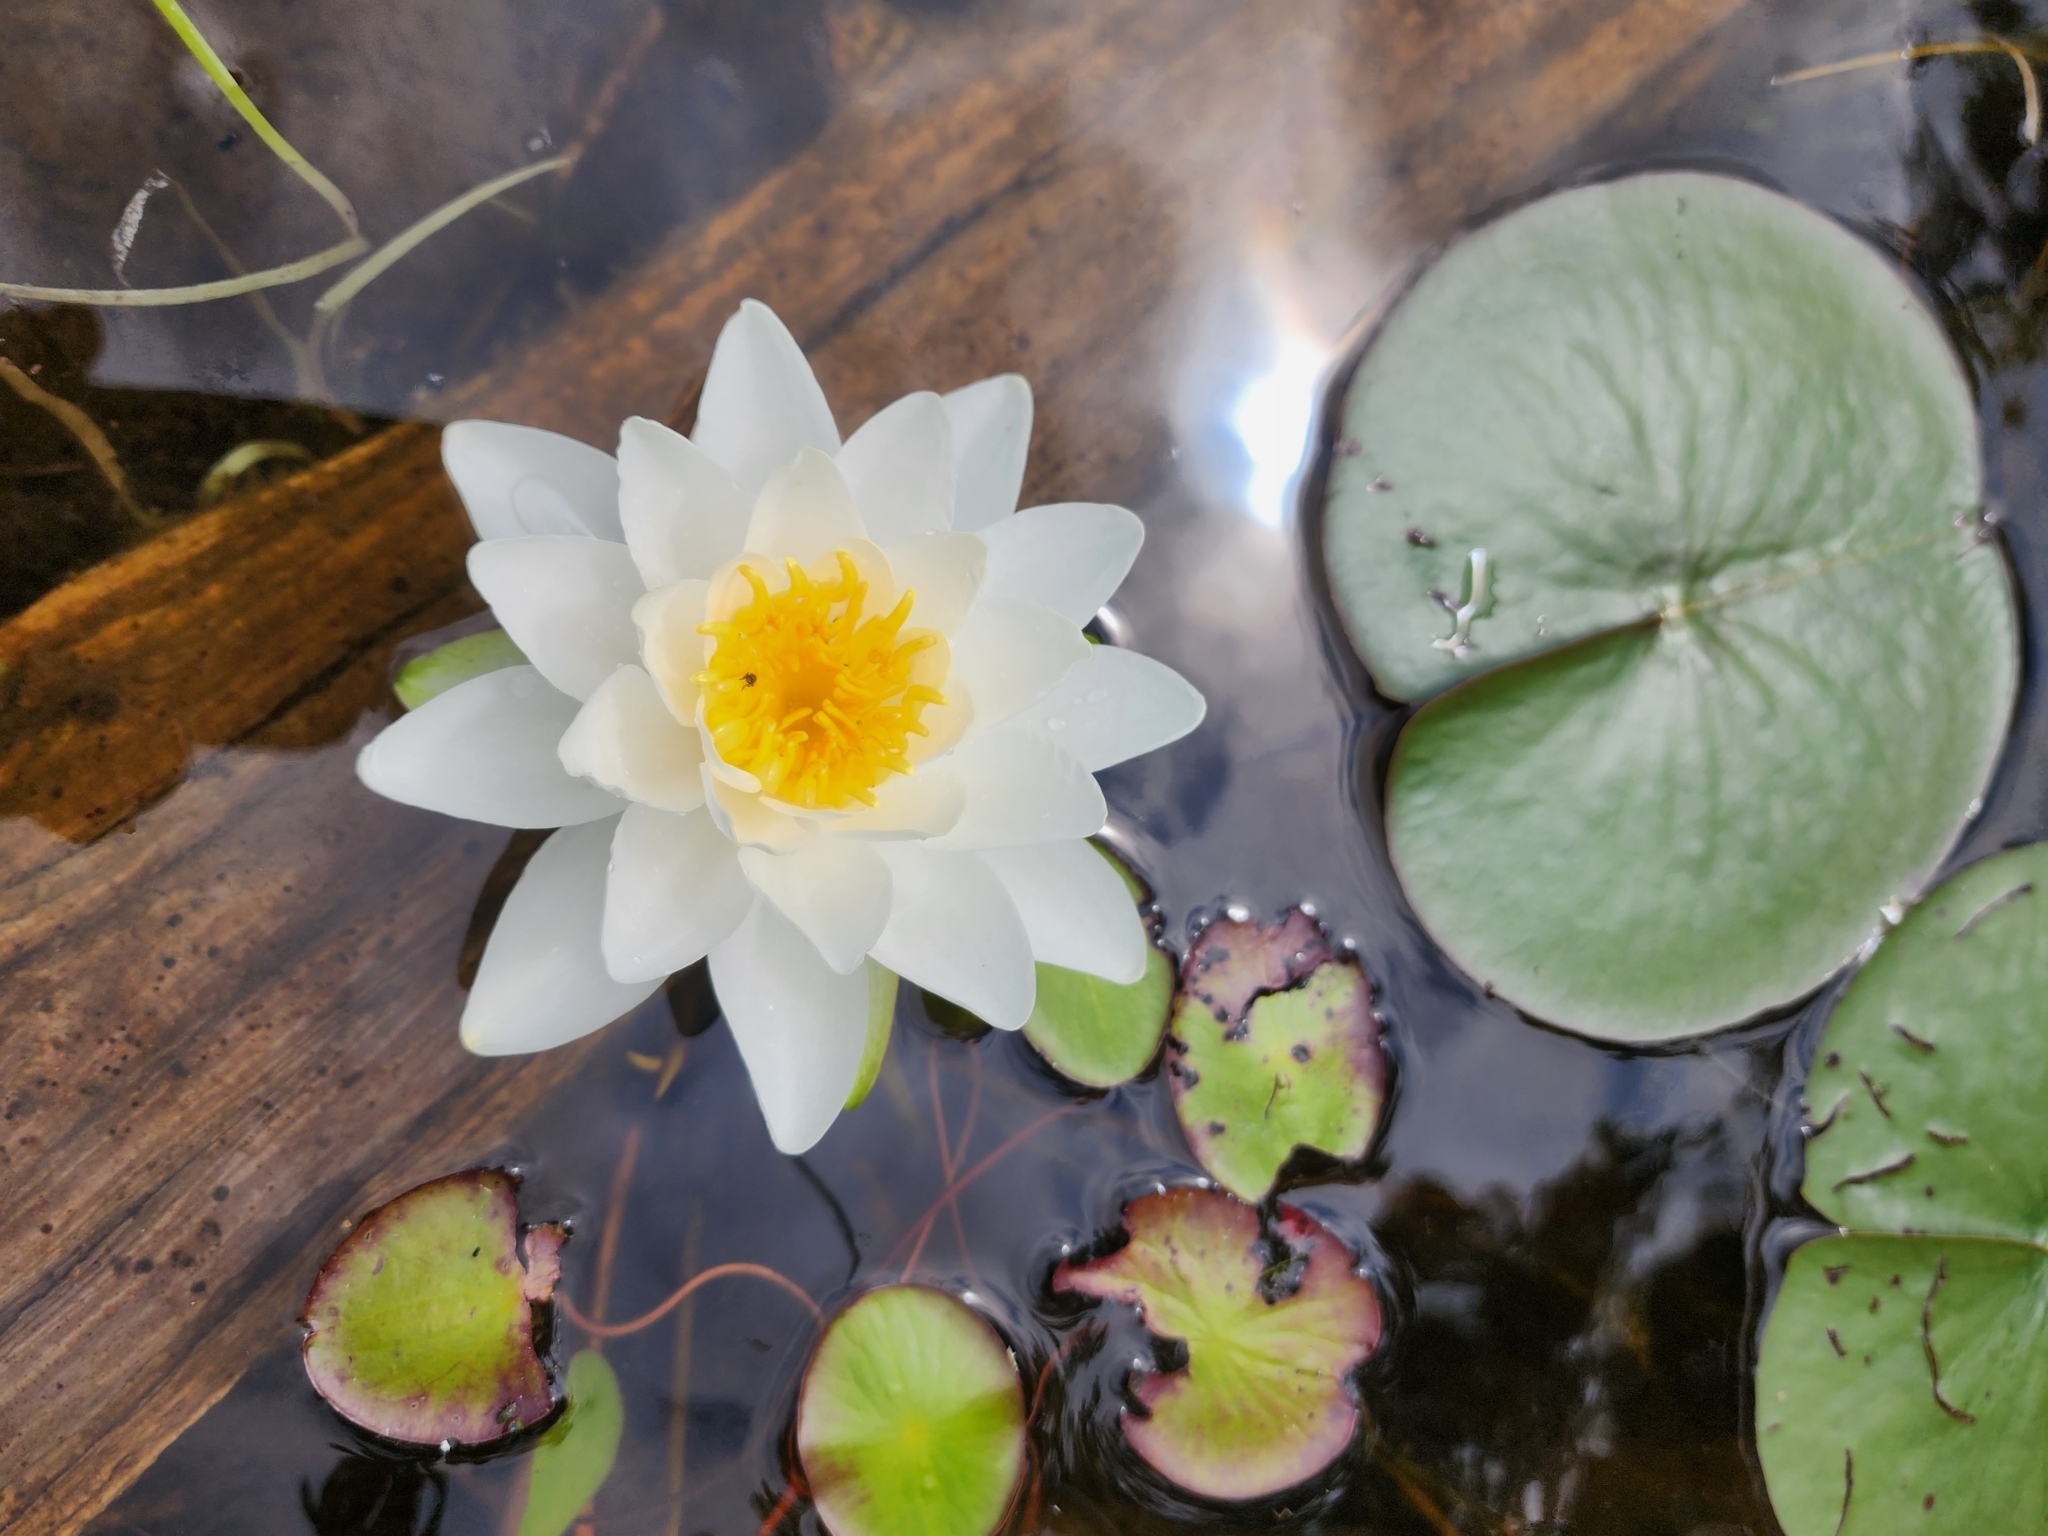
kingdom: Plantae
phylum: Tracheophyta
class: Magnoliopsida
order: Nymphaeales
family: Nymphaeaceae
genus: Nymphaea
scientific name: Nymphaea odorata
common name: Fragrant water-lily
